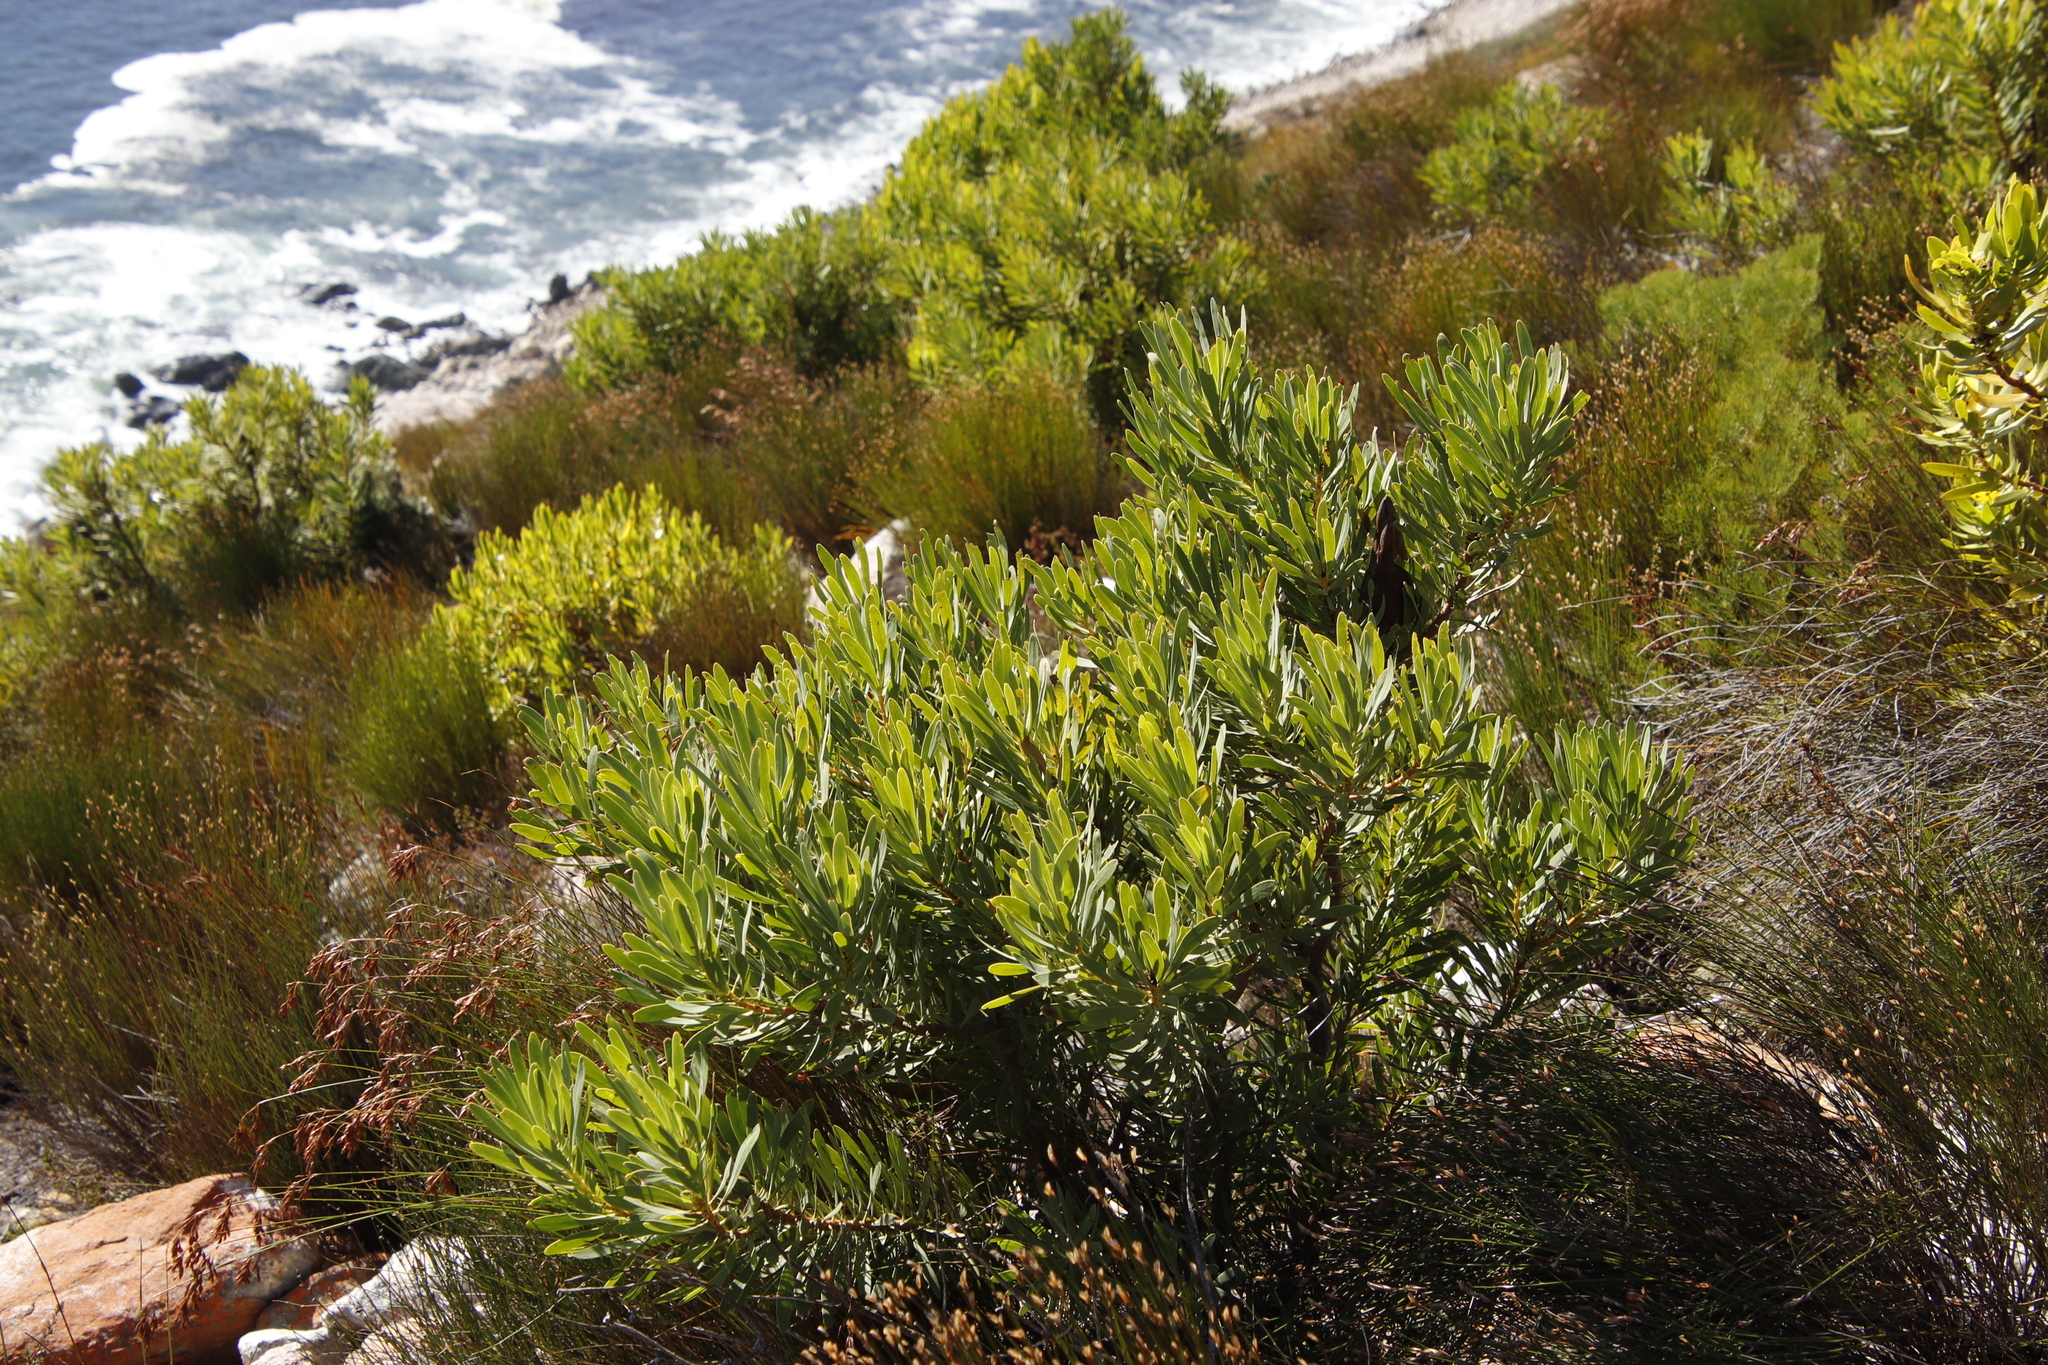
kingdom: Plantae
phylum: Tracheophyta
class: Magnoliopsida
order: Proteales
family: Proteaceae
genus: Protea
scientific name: Protea repens
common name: Sugarbush
